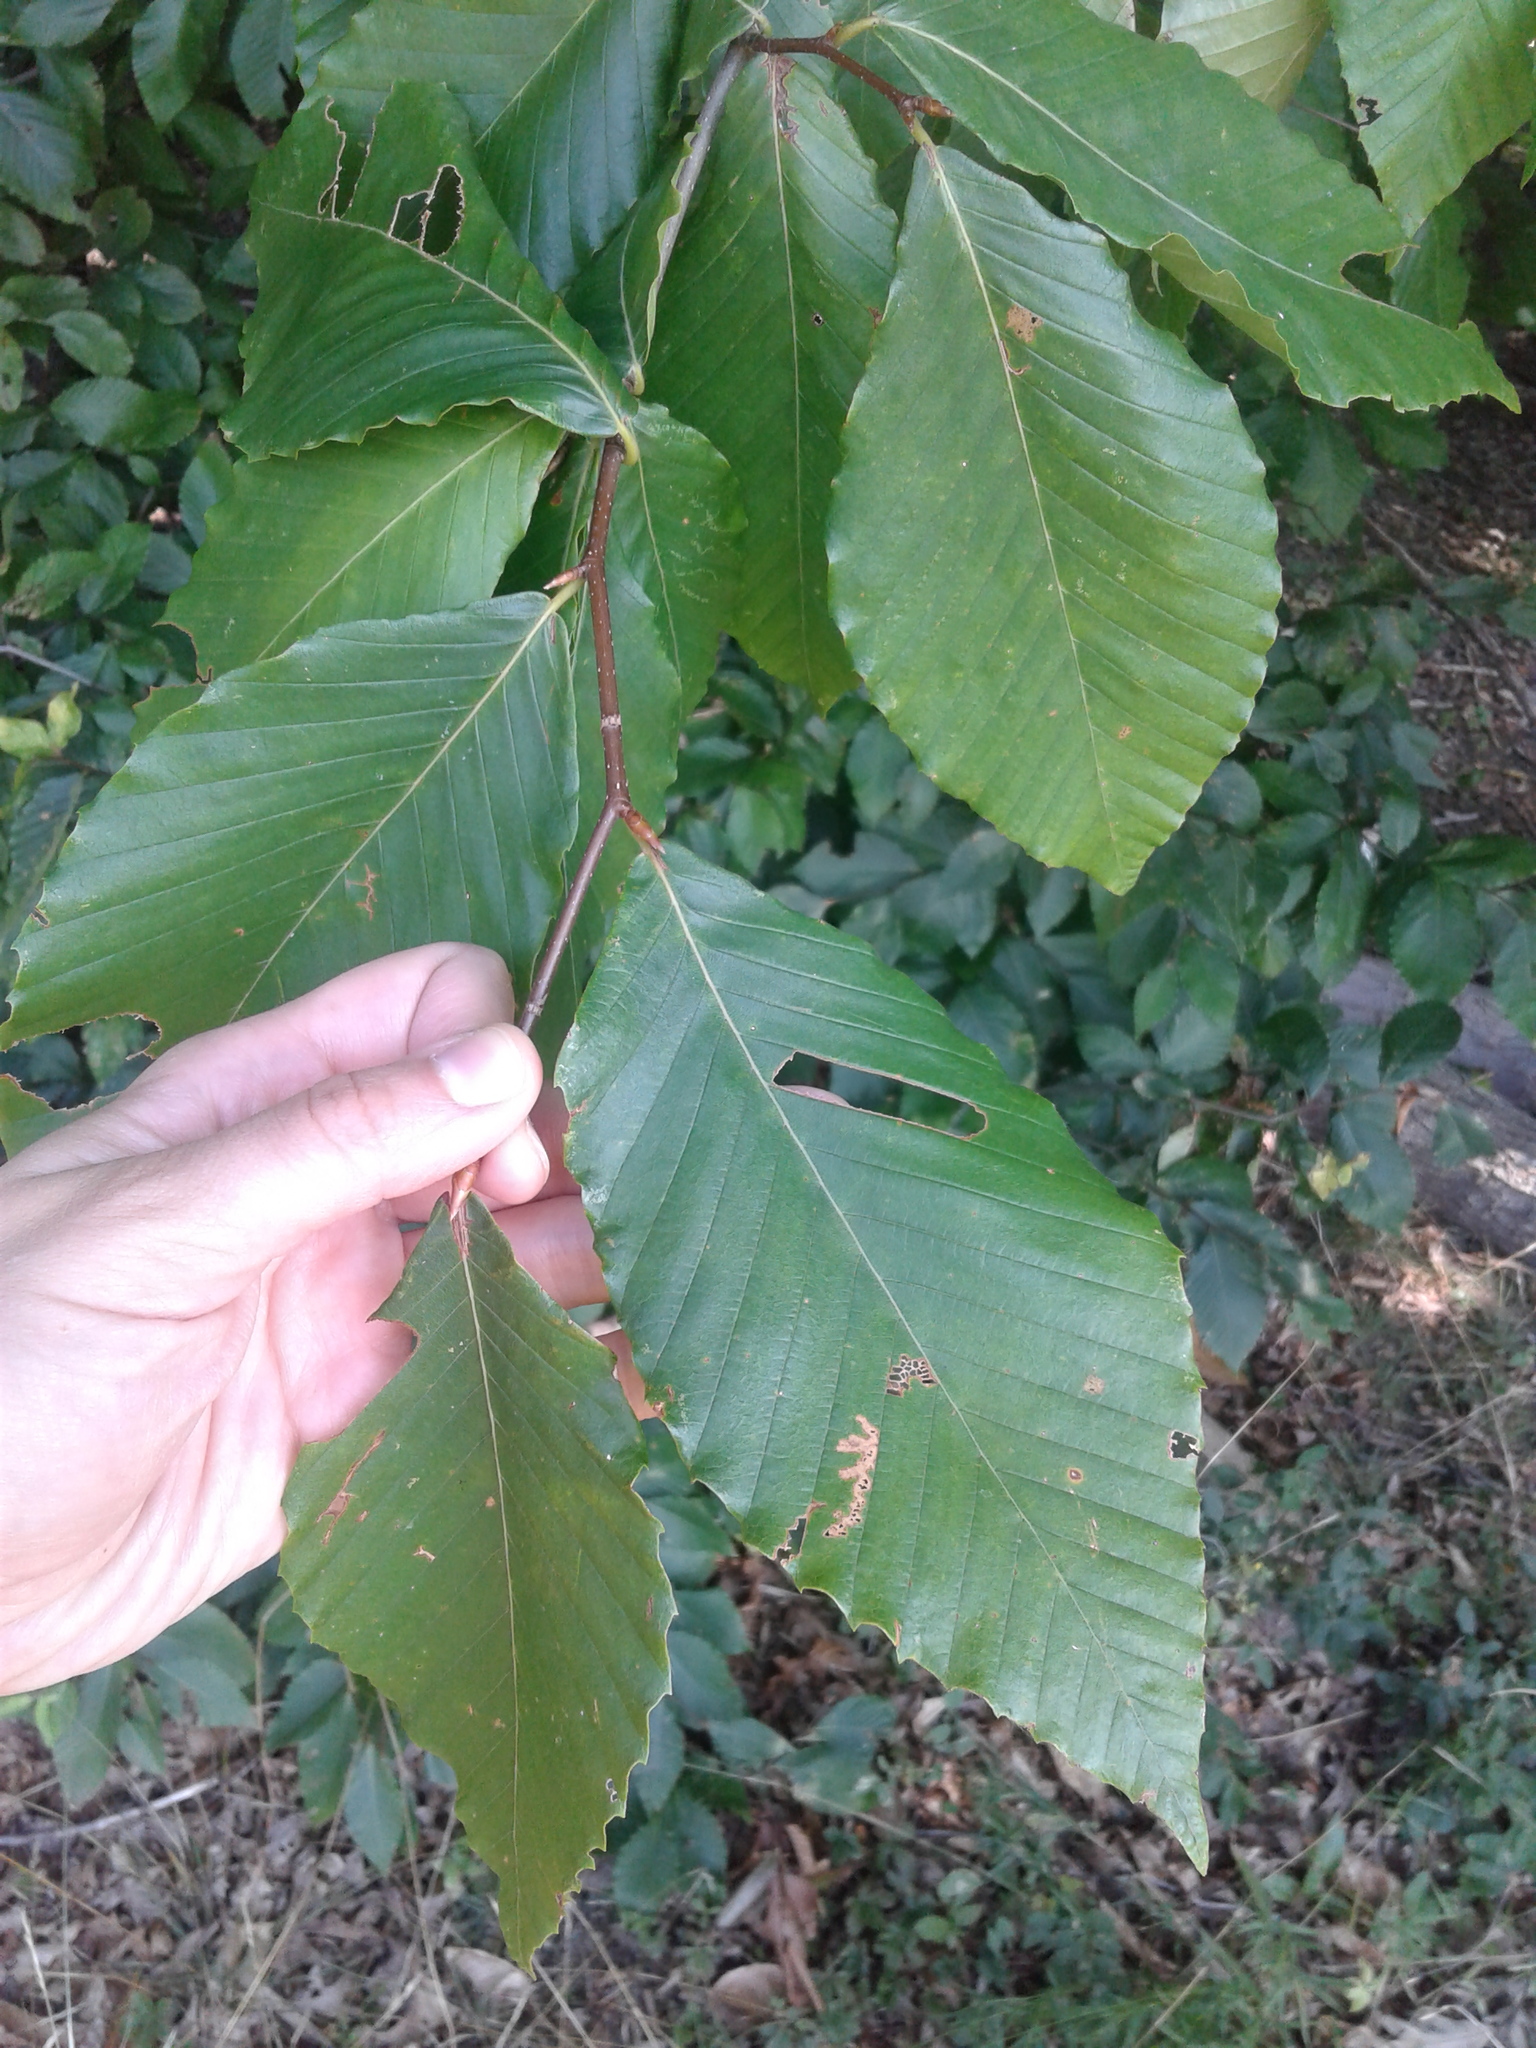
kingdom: Plantae
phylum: Tracheophyta
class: Magnoliopsida
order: Fagales
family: Fagaceae
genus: Fagus
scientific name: Fagus grandifolia
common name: American beech
